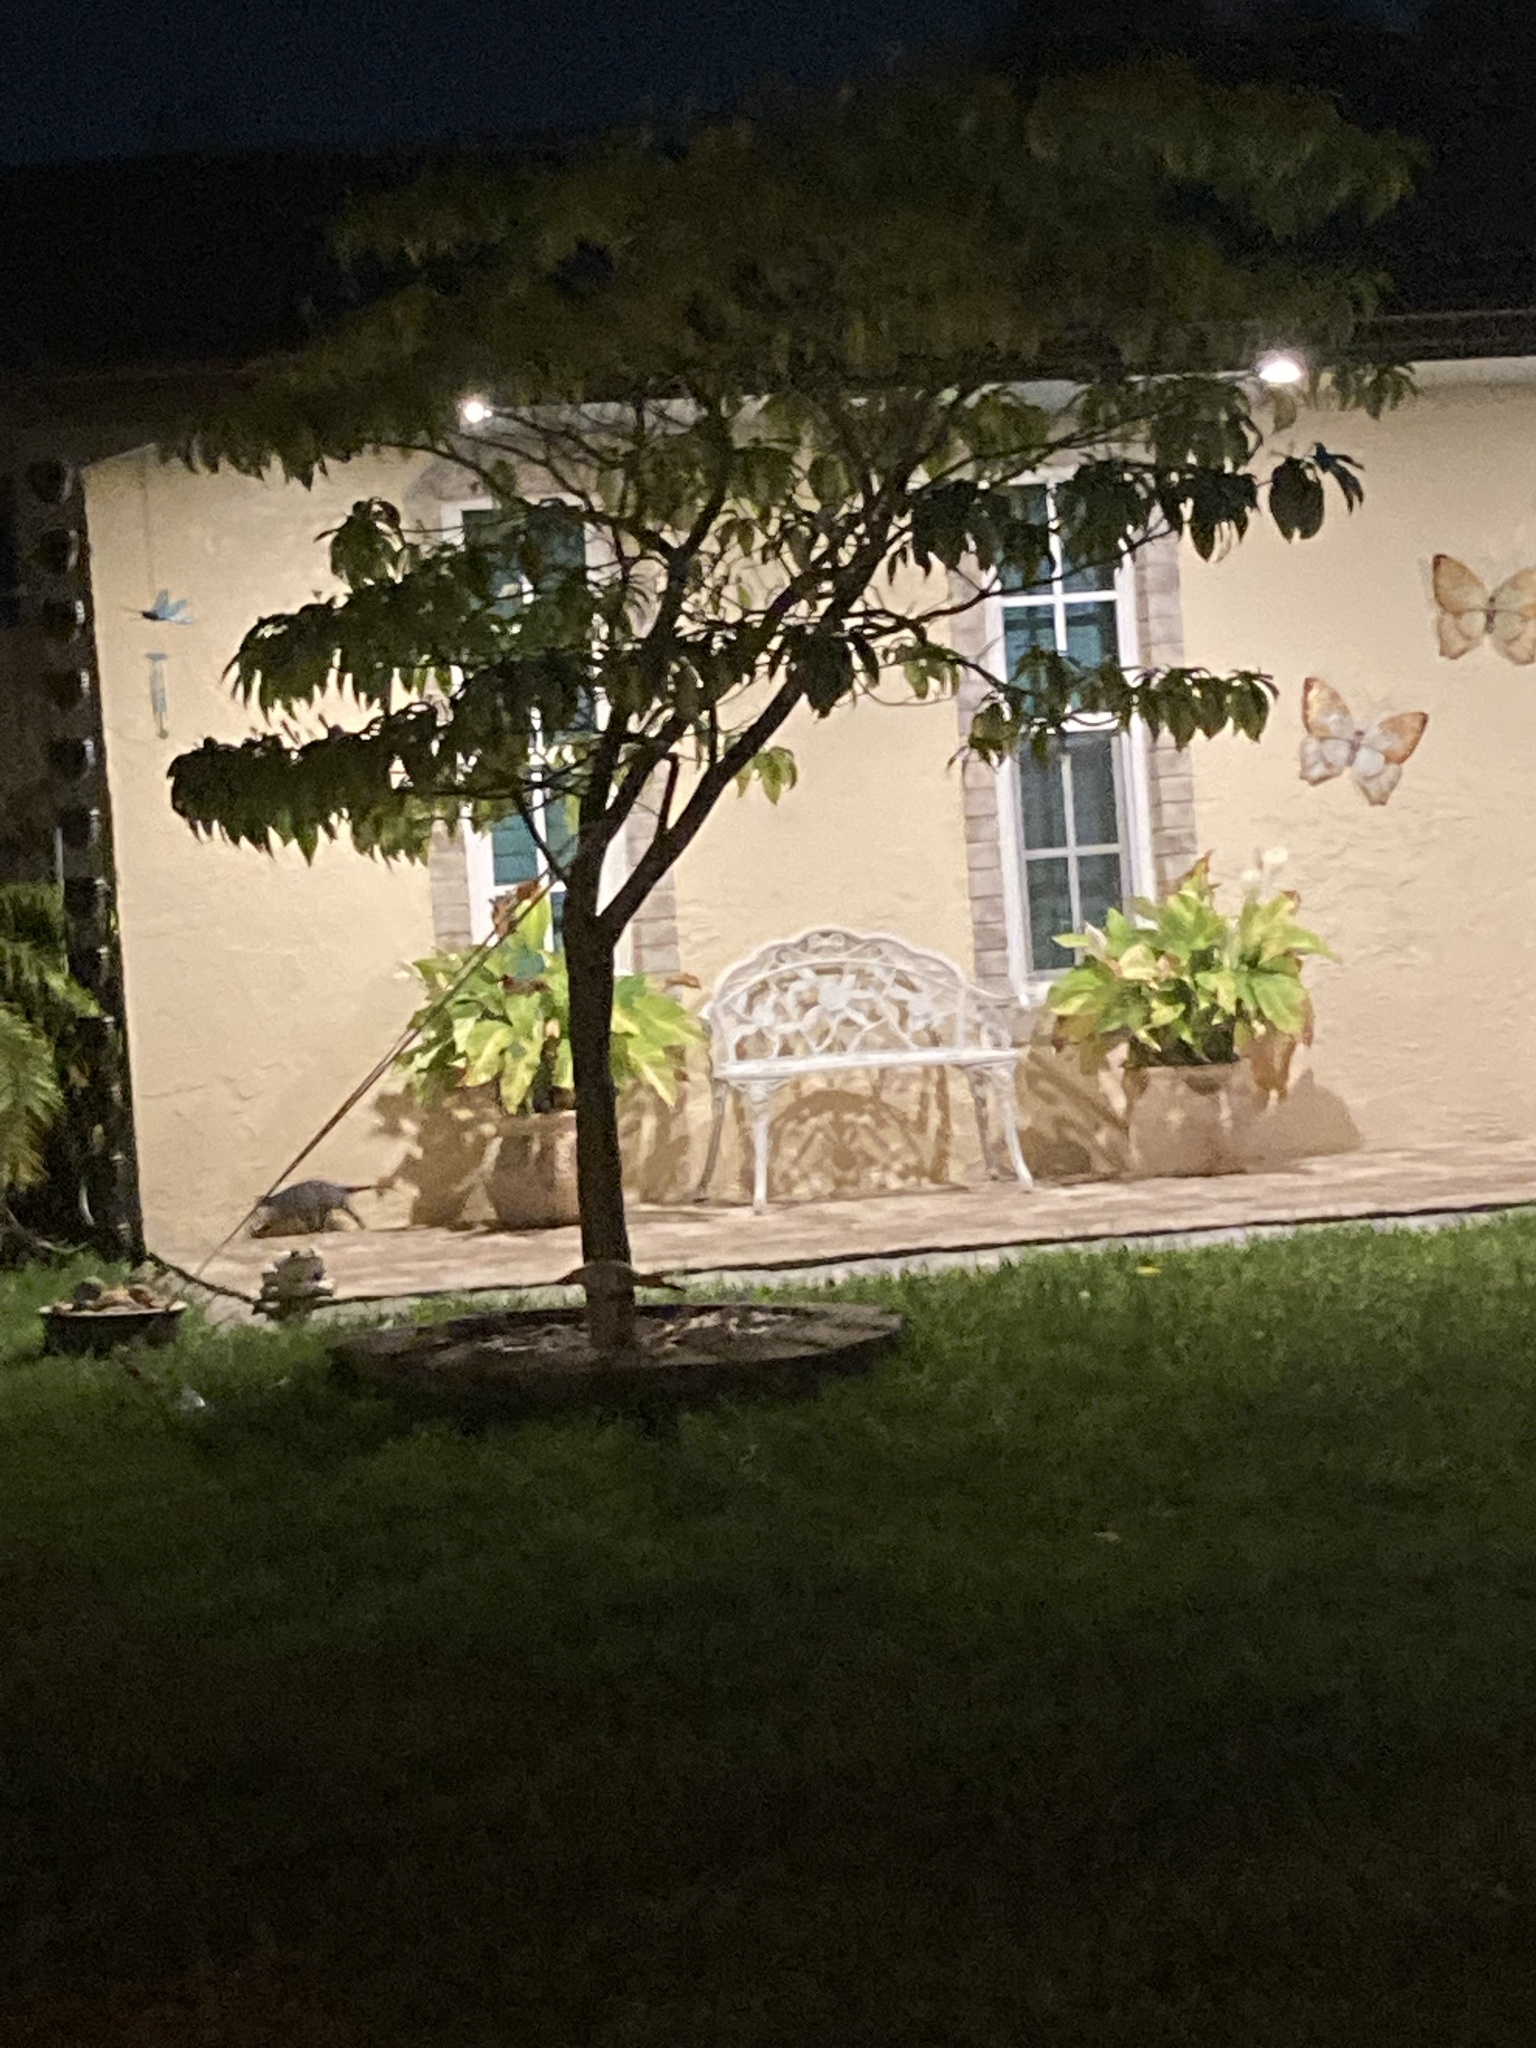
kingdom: Animalia
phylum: Chordata
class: Mammalia
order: Didelphimorphia
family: Didelphidae
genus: Didelphis
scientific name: Didelphis virginiana
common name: Virginia opossum
